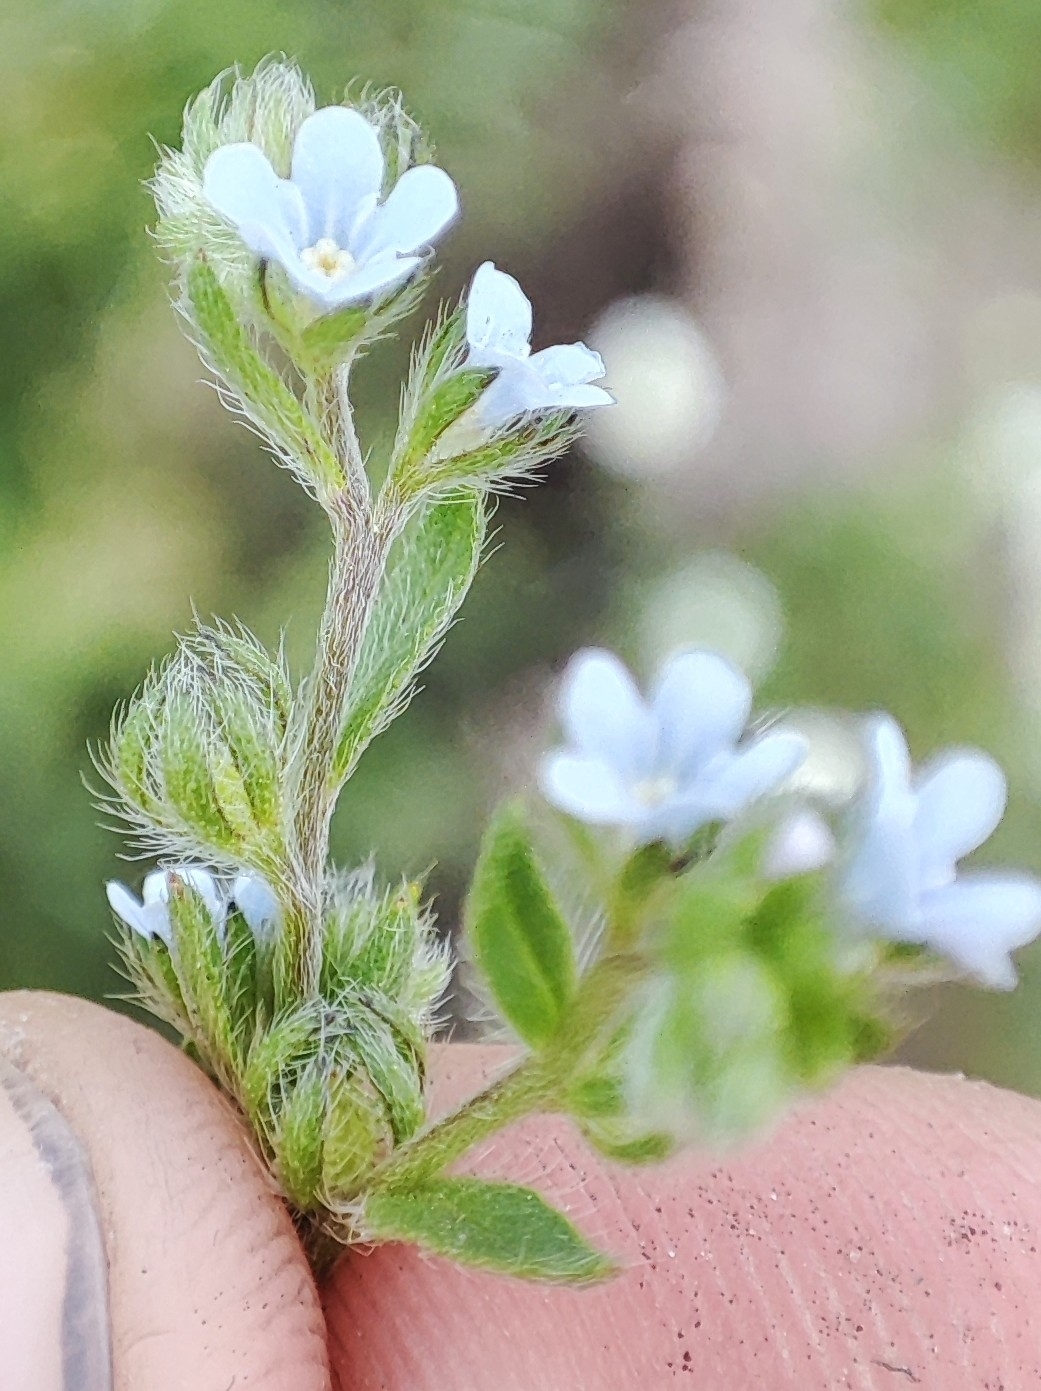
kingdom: Plantae
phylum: Tracheophyta
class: Magnoliopsida
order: Boraginales
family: Boraginaceae
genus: Lappula
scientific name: Lappula squarrosa
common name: European stickseed
